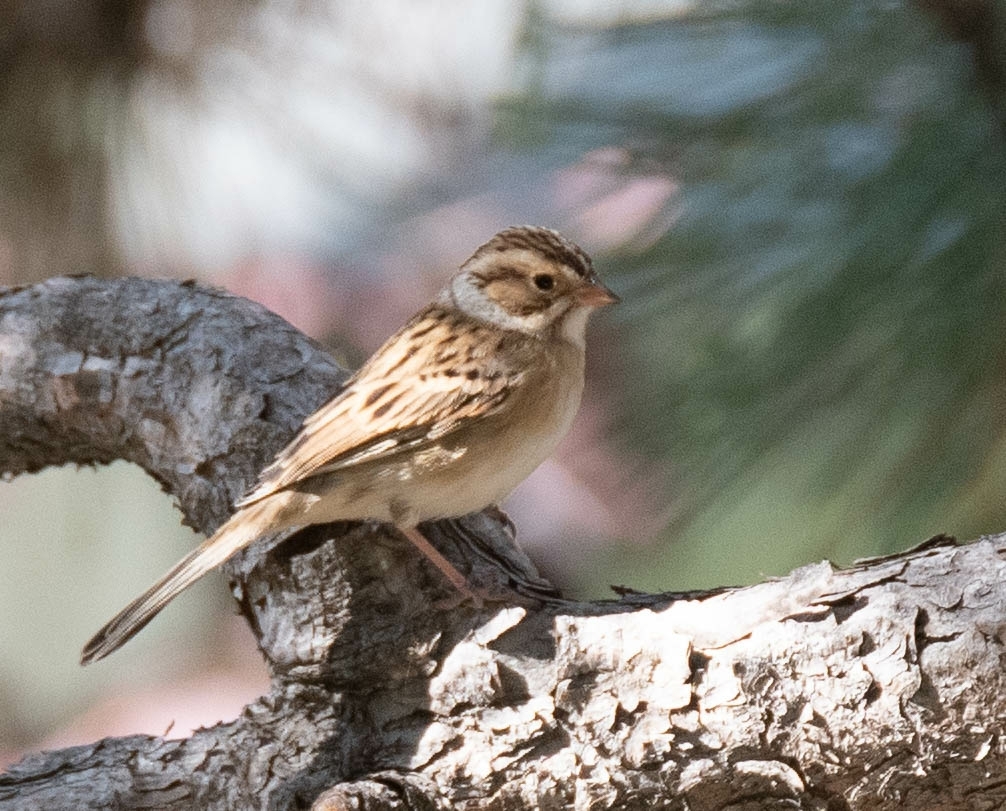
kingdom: Animalia
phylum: Chordata
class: Aves
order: Passeriformes
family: Passerellidae
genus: Spizella
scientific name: Spizella pallida
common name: Clay-colored sparrow
